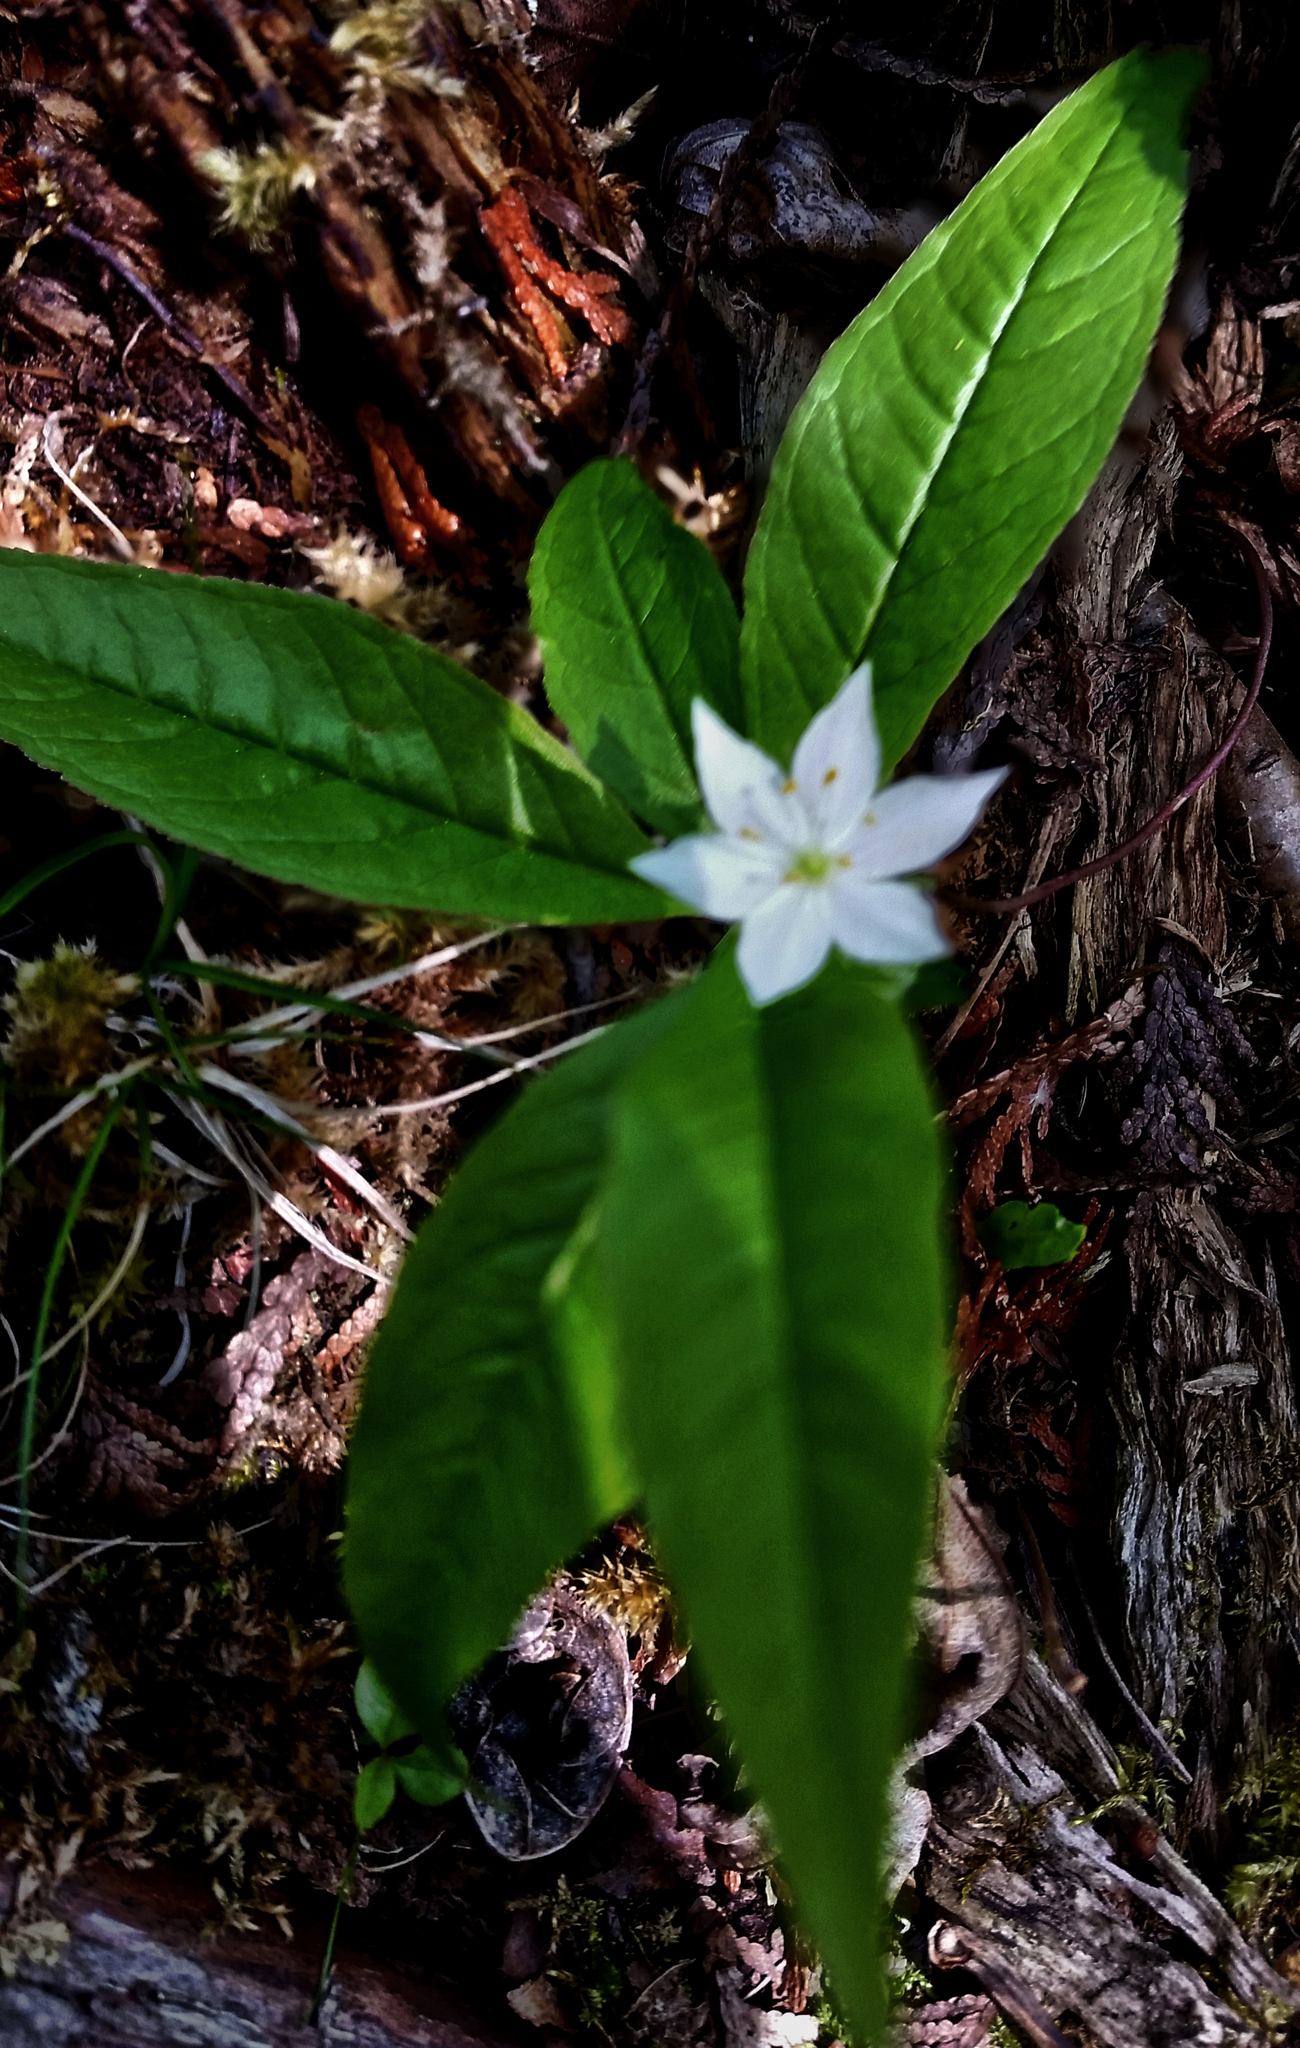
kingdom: Plantae
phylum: Tracheophyta
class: Magnoliopsida
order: Ericales
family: Primulaceae
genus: Lysimachia
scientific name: Lysimachia borealis
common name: American starflower
